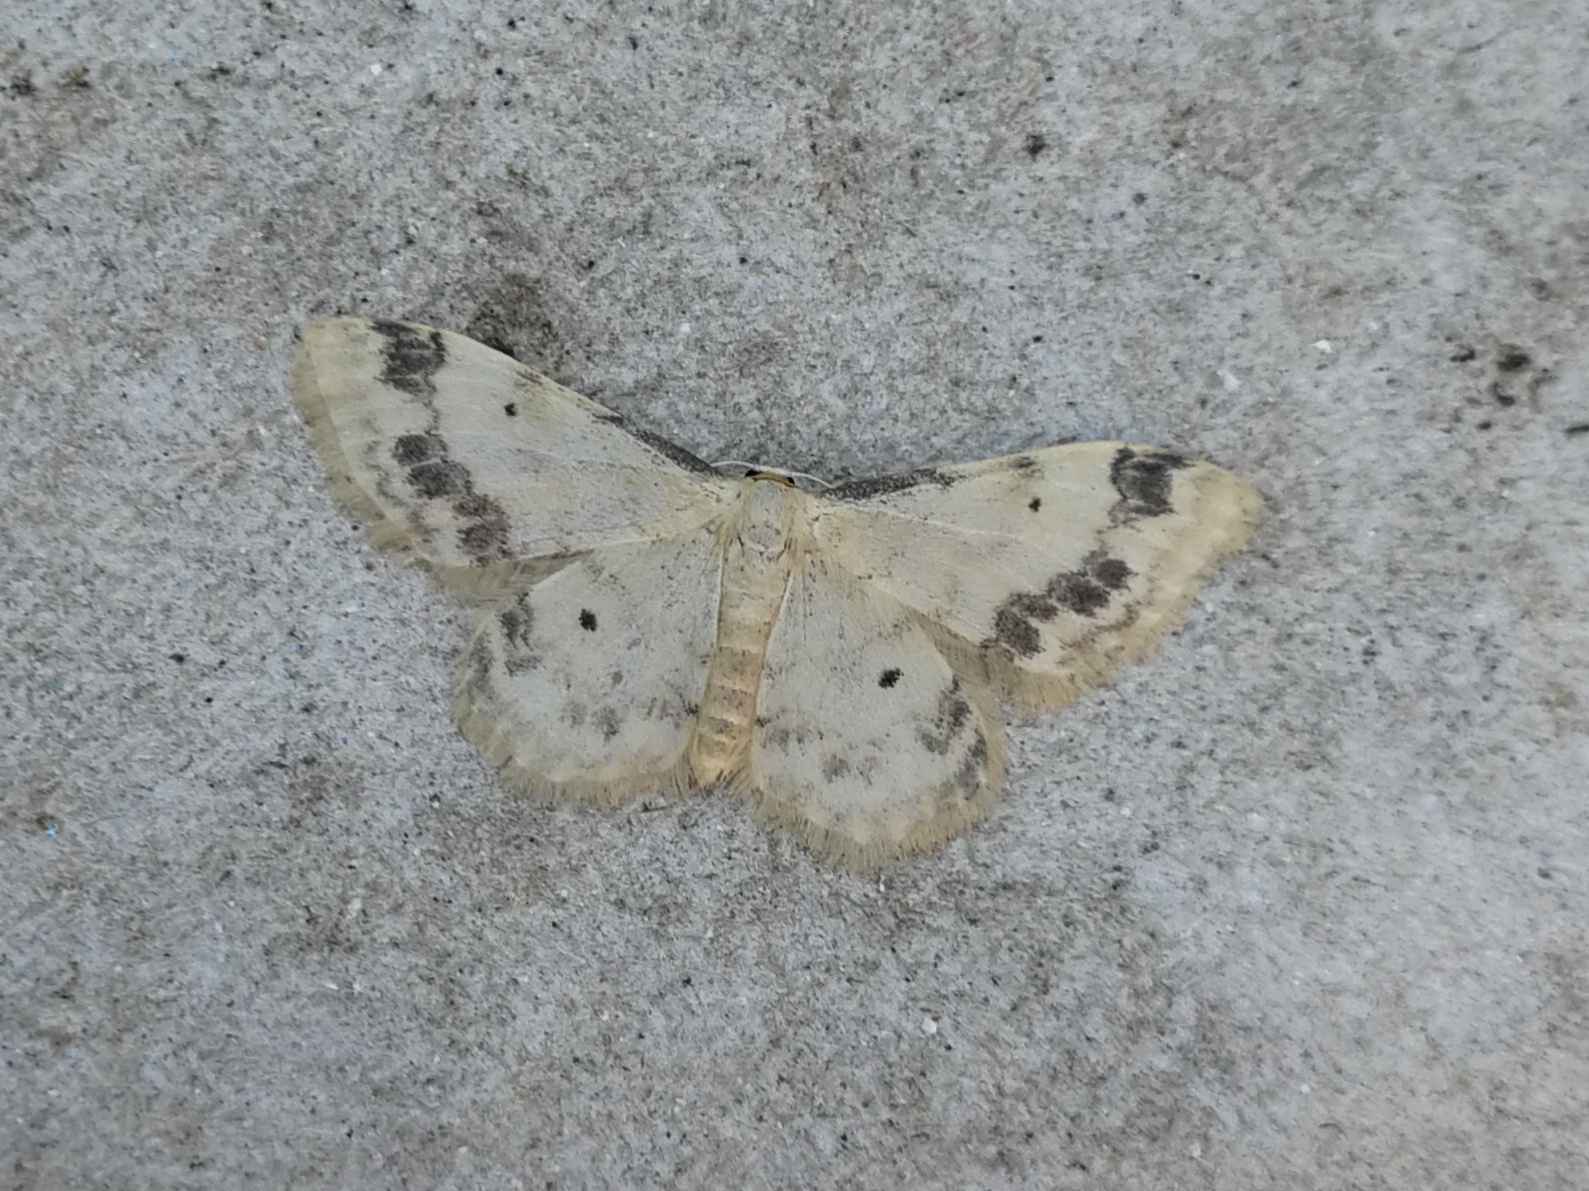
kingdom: Animalia
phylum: Arthropoda
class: Insecta
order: Lepidoptera
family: Geometridae
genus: Idaea
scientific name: Idaea trigeminata
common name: Treble brown spot
